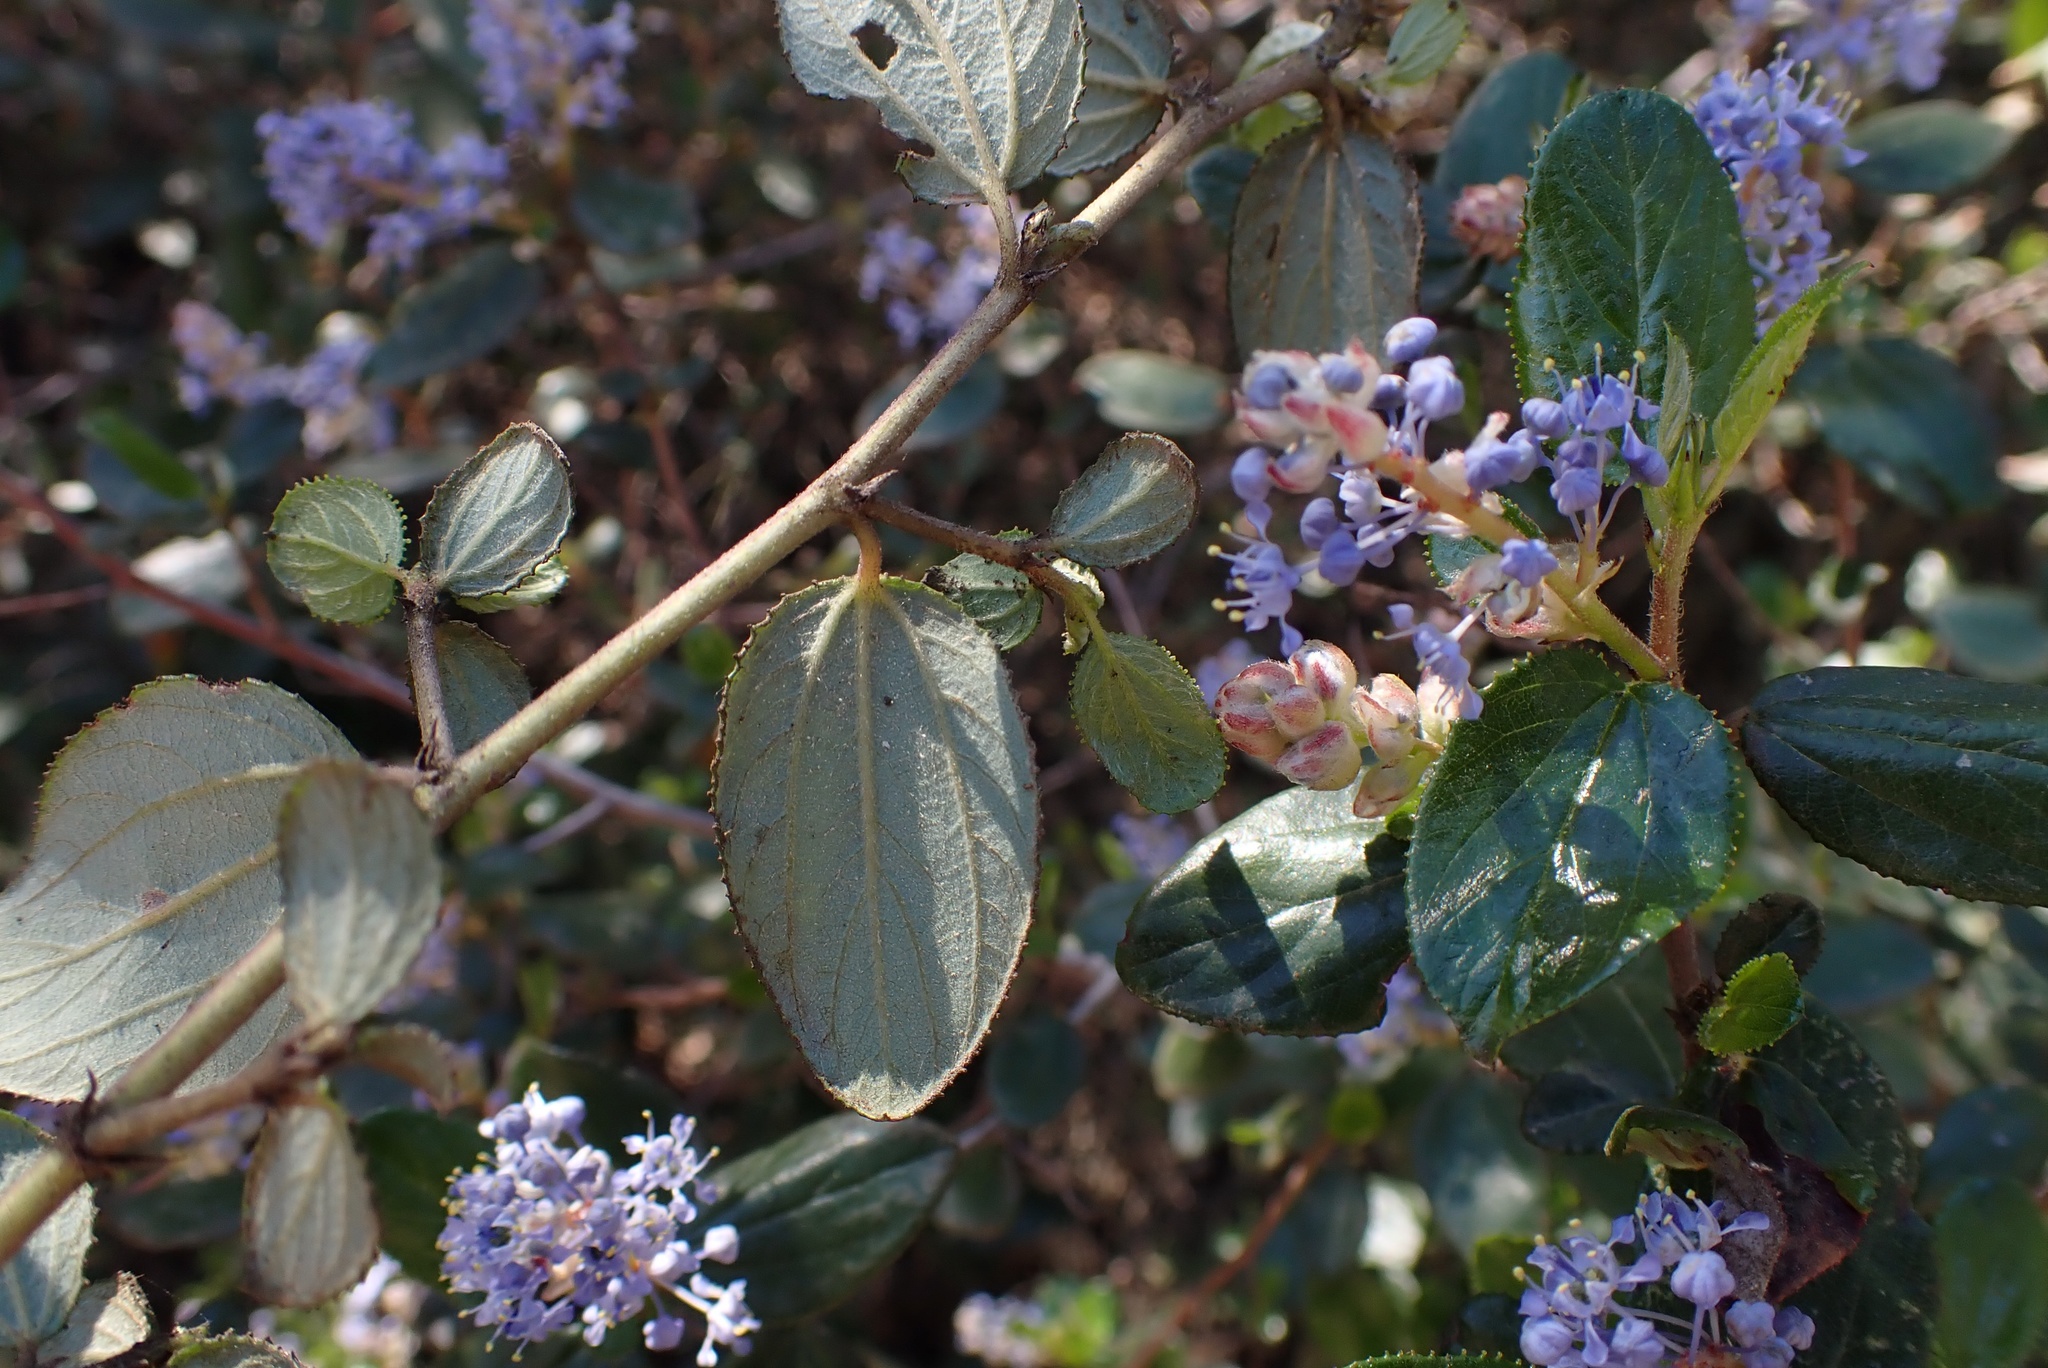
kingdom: Plantae
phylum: Tracheophyta
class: Magnoliopsida
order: Rosales
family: Rhamnaceae
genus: Ceanothus
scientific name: Ceanothus oliganthus
